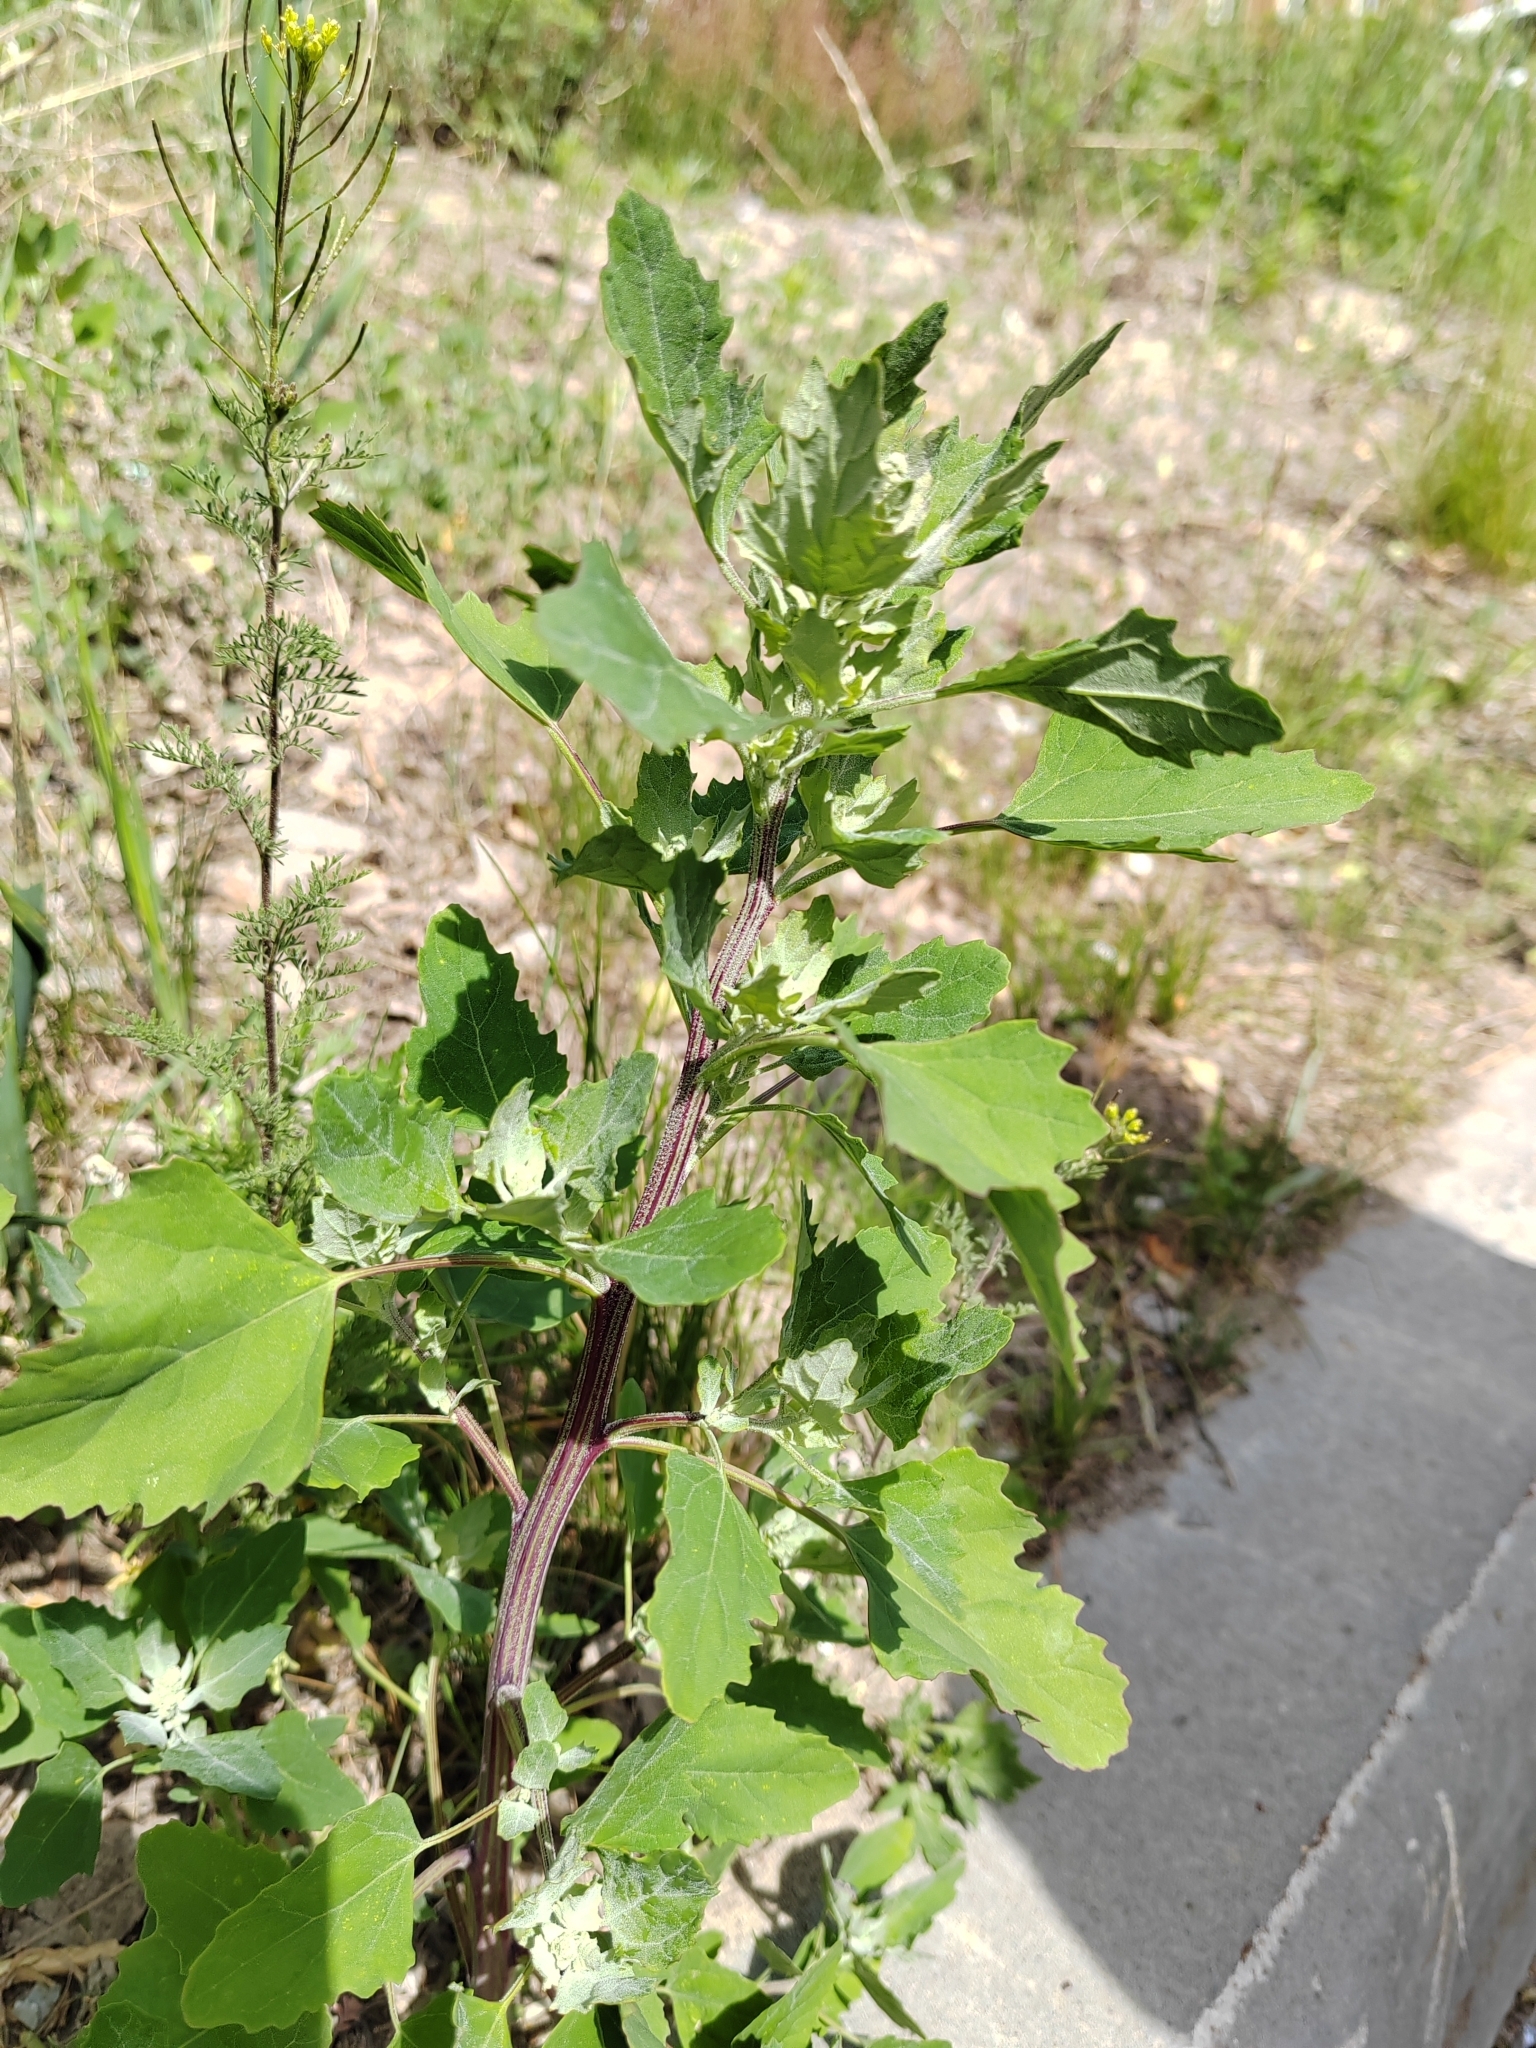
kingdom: Plantae
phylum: Tracheophyta
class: Magnoliopsida
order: Caryophyllales
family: Amaranthaceae
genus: Chenopodium
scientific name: Chenopodium album
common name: Fat-hen
